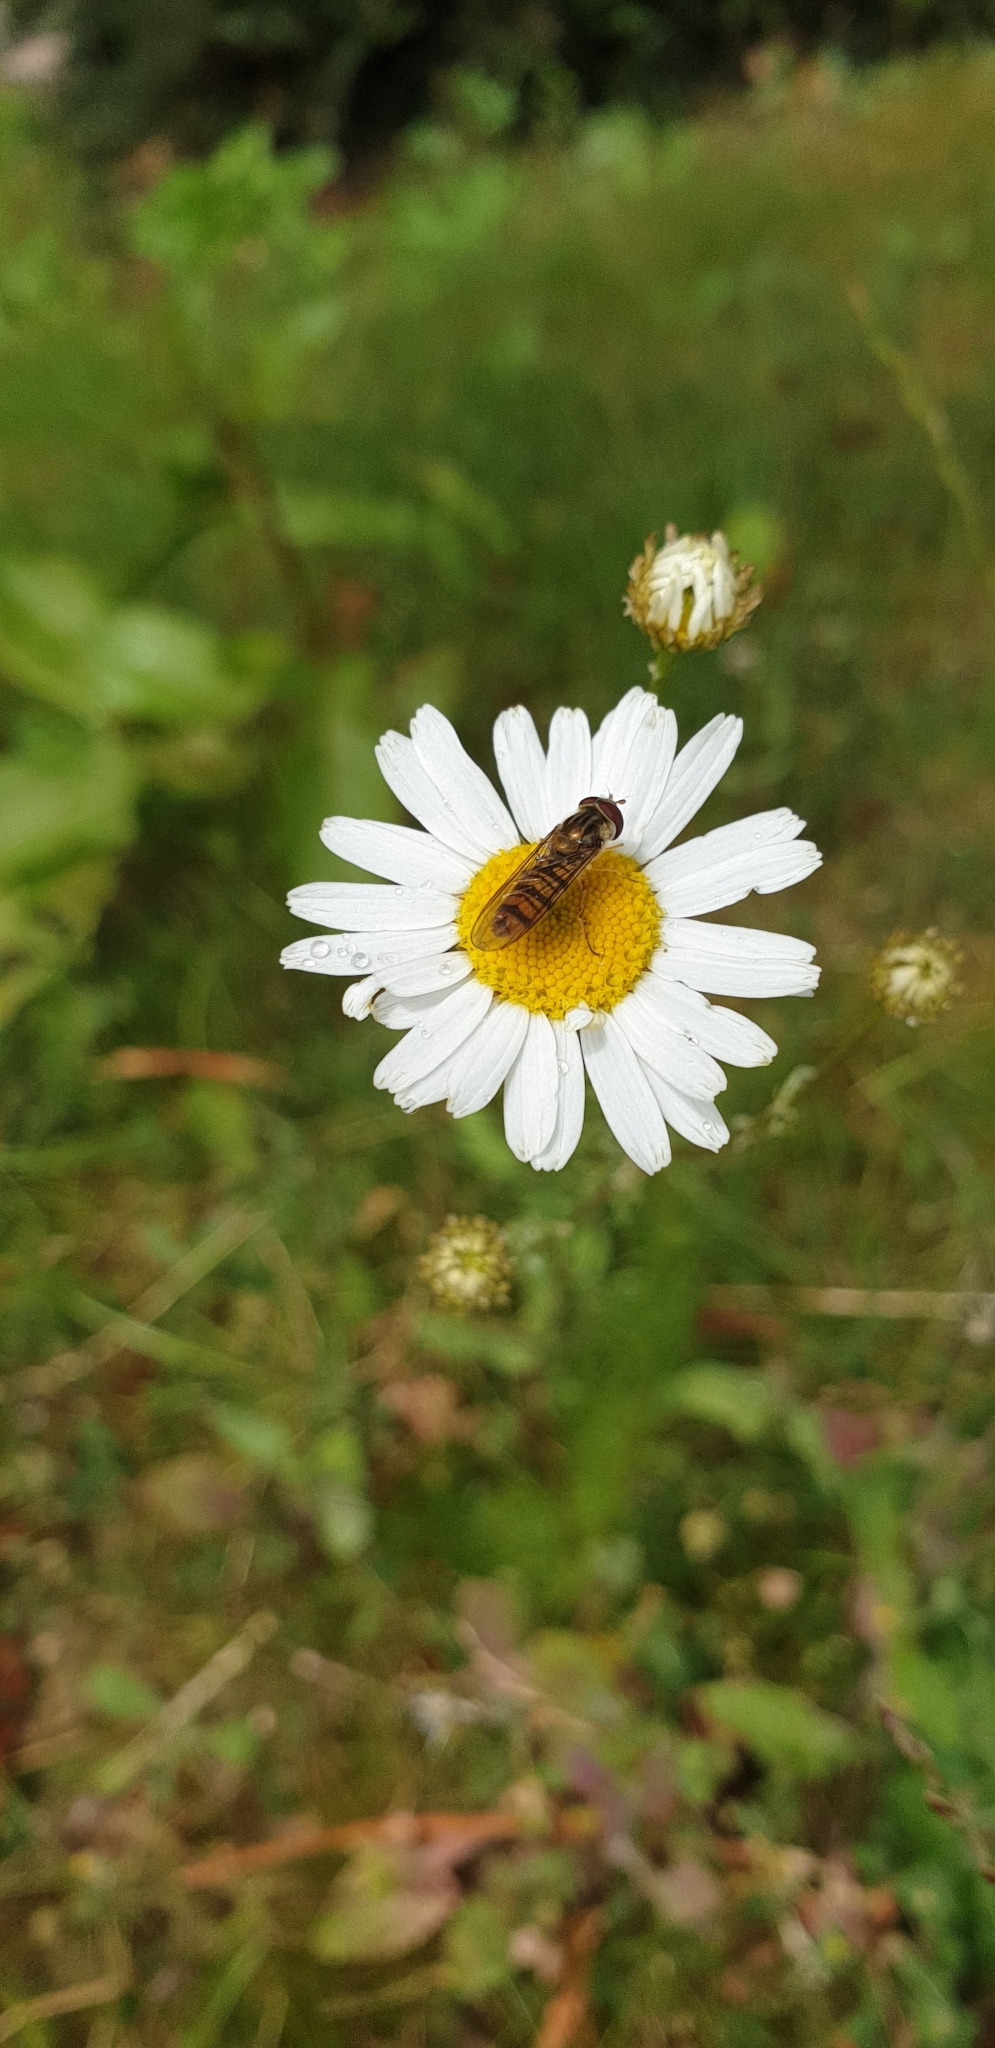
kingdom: Animalia
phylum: Arthropoda
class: Insecta
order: Diptera
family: Syrphidae
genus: Episyrphus
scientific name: Episyrphus balteatus
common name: Marmalade hoverfly
